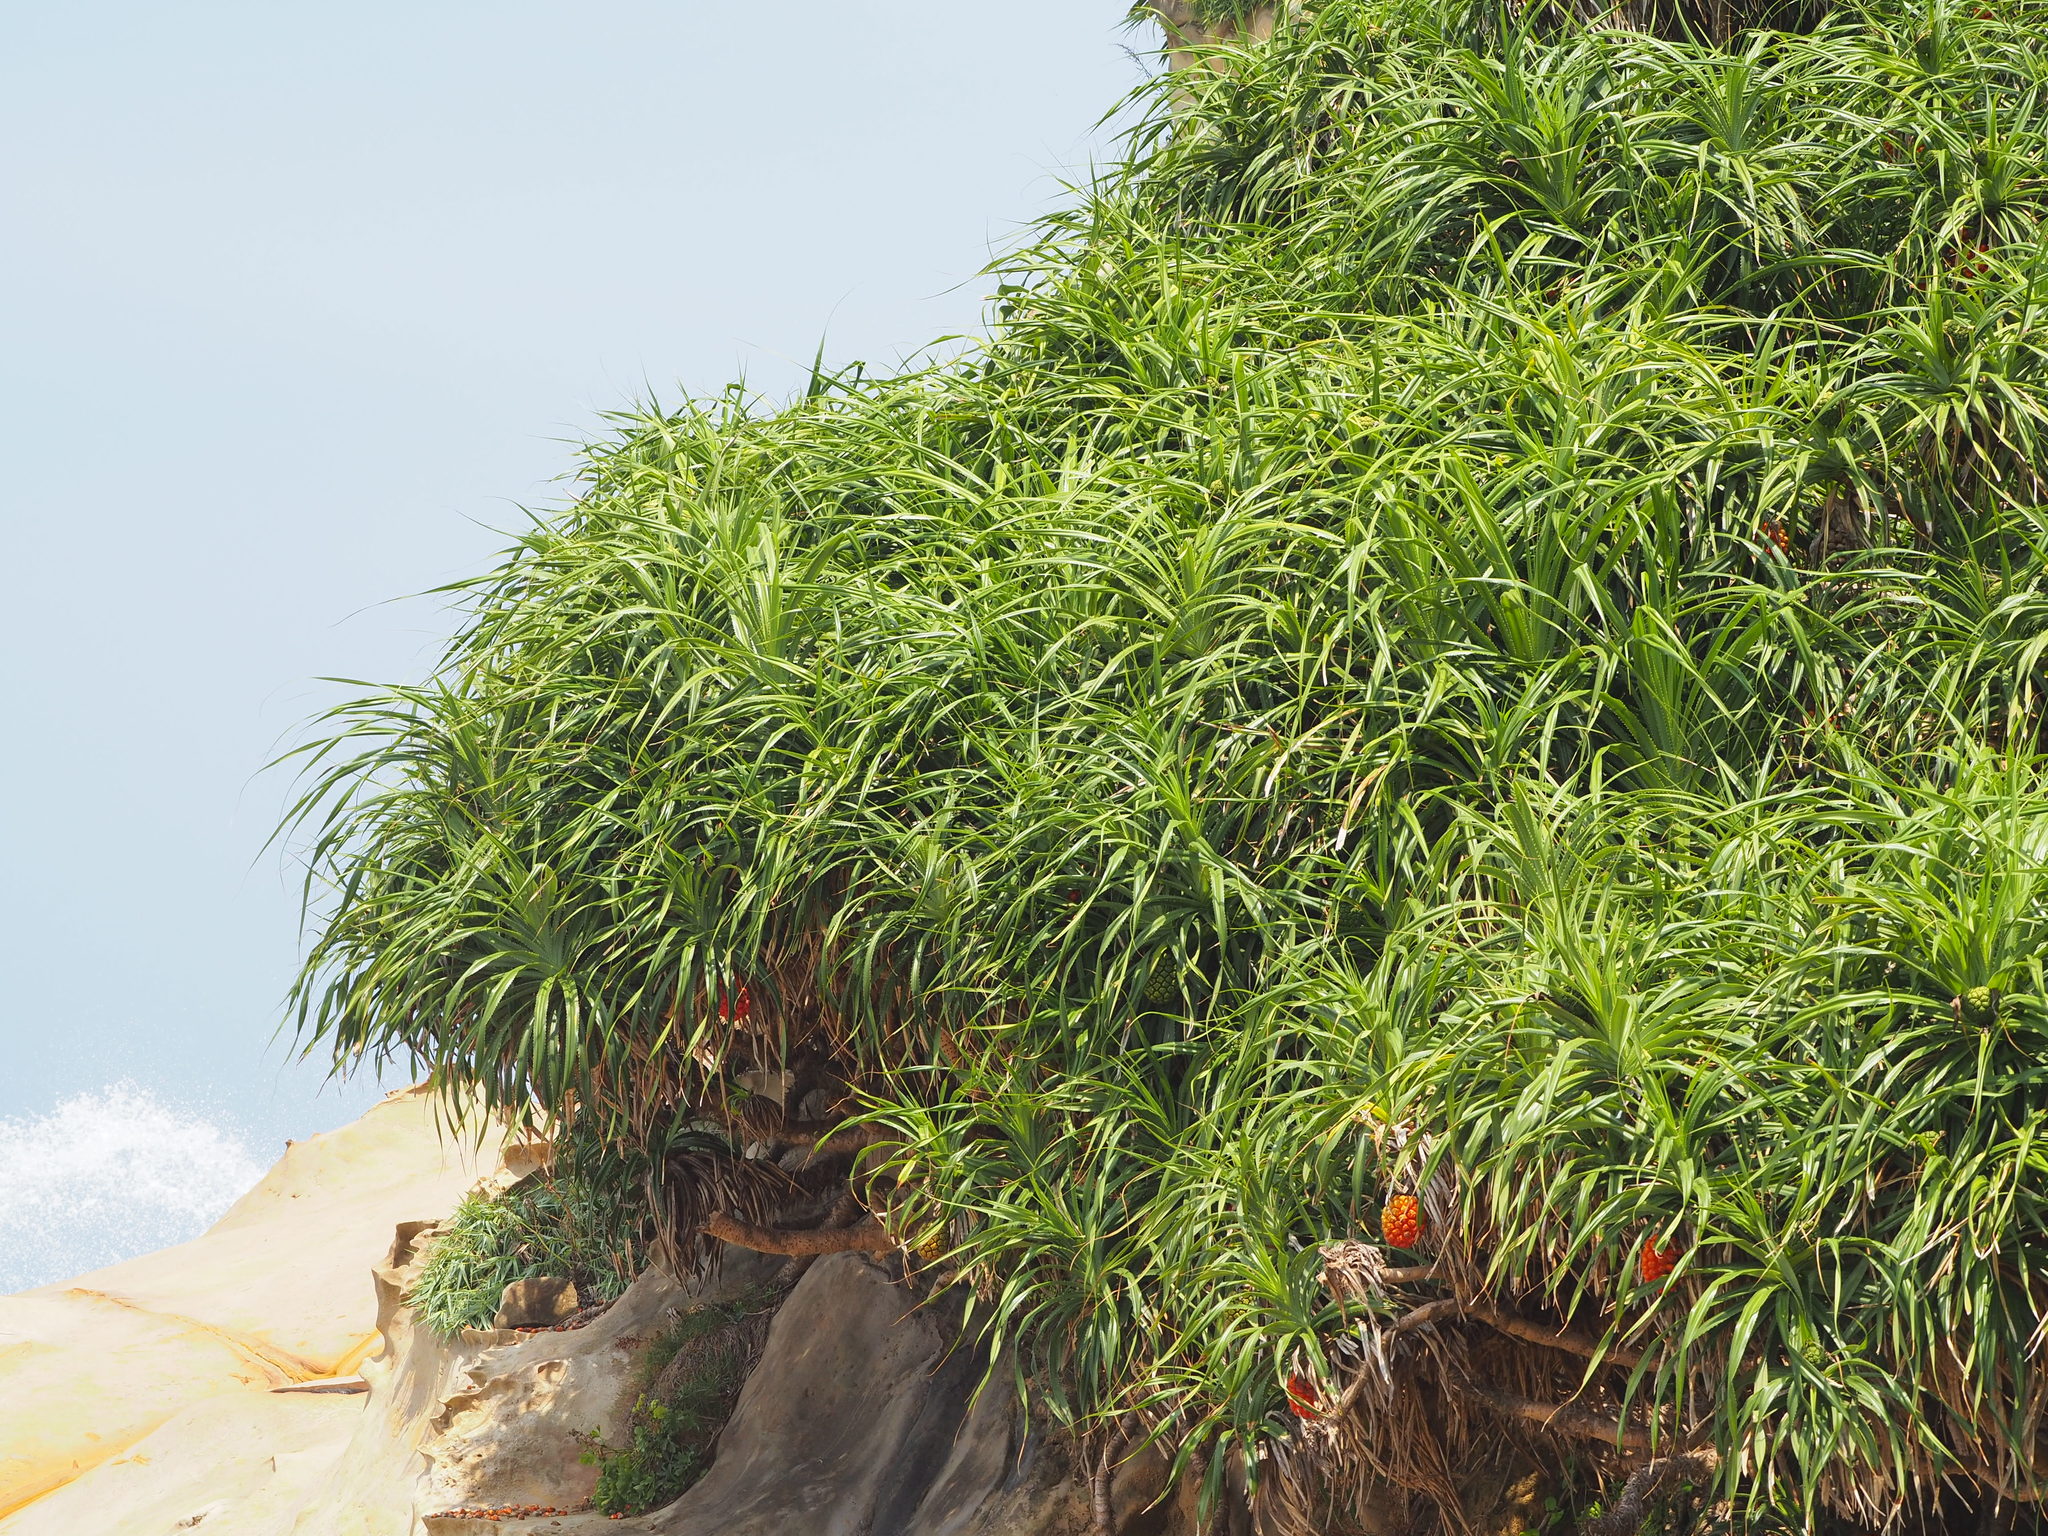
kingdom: Plantae
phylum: Tracheophyta
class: Liliopsida
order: Pandanales
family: Pandanaceae
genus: Pandanus
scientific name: Pandanus odorifer
